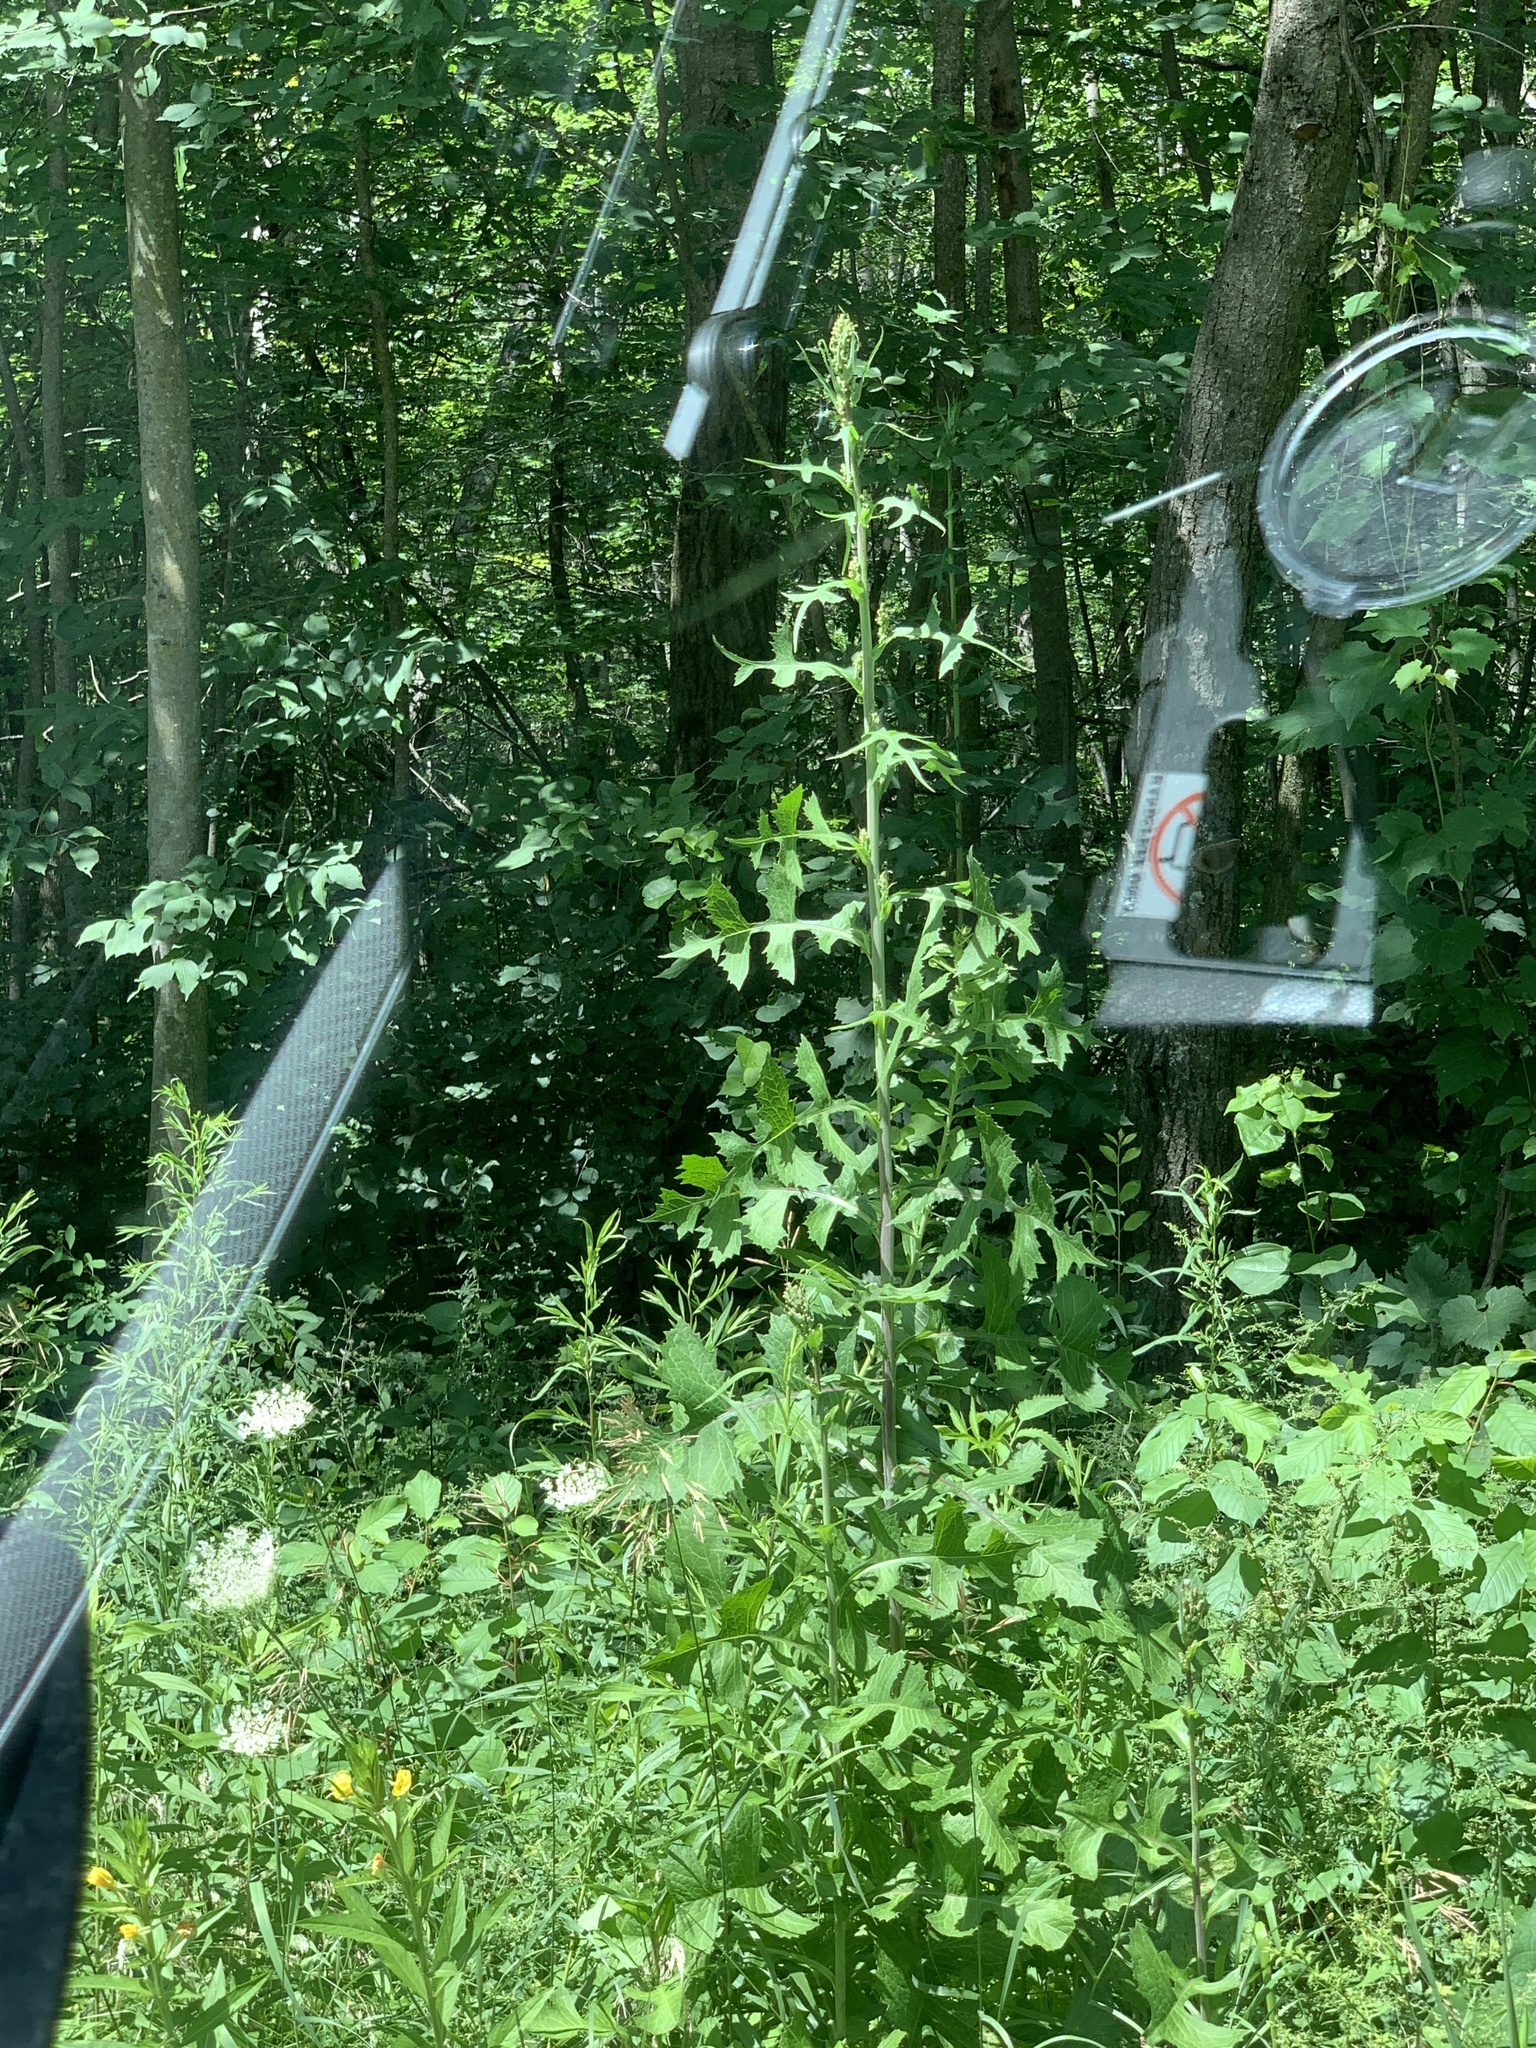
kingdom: Plantae
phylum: Tracheophyta
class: Magnoliopsida
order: Asterales
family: Asteraceae
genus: Lactuca
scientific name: Lactuca biennis
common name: Blue wood lettuce
